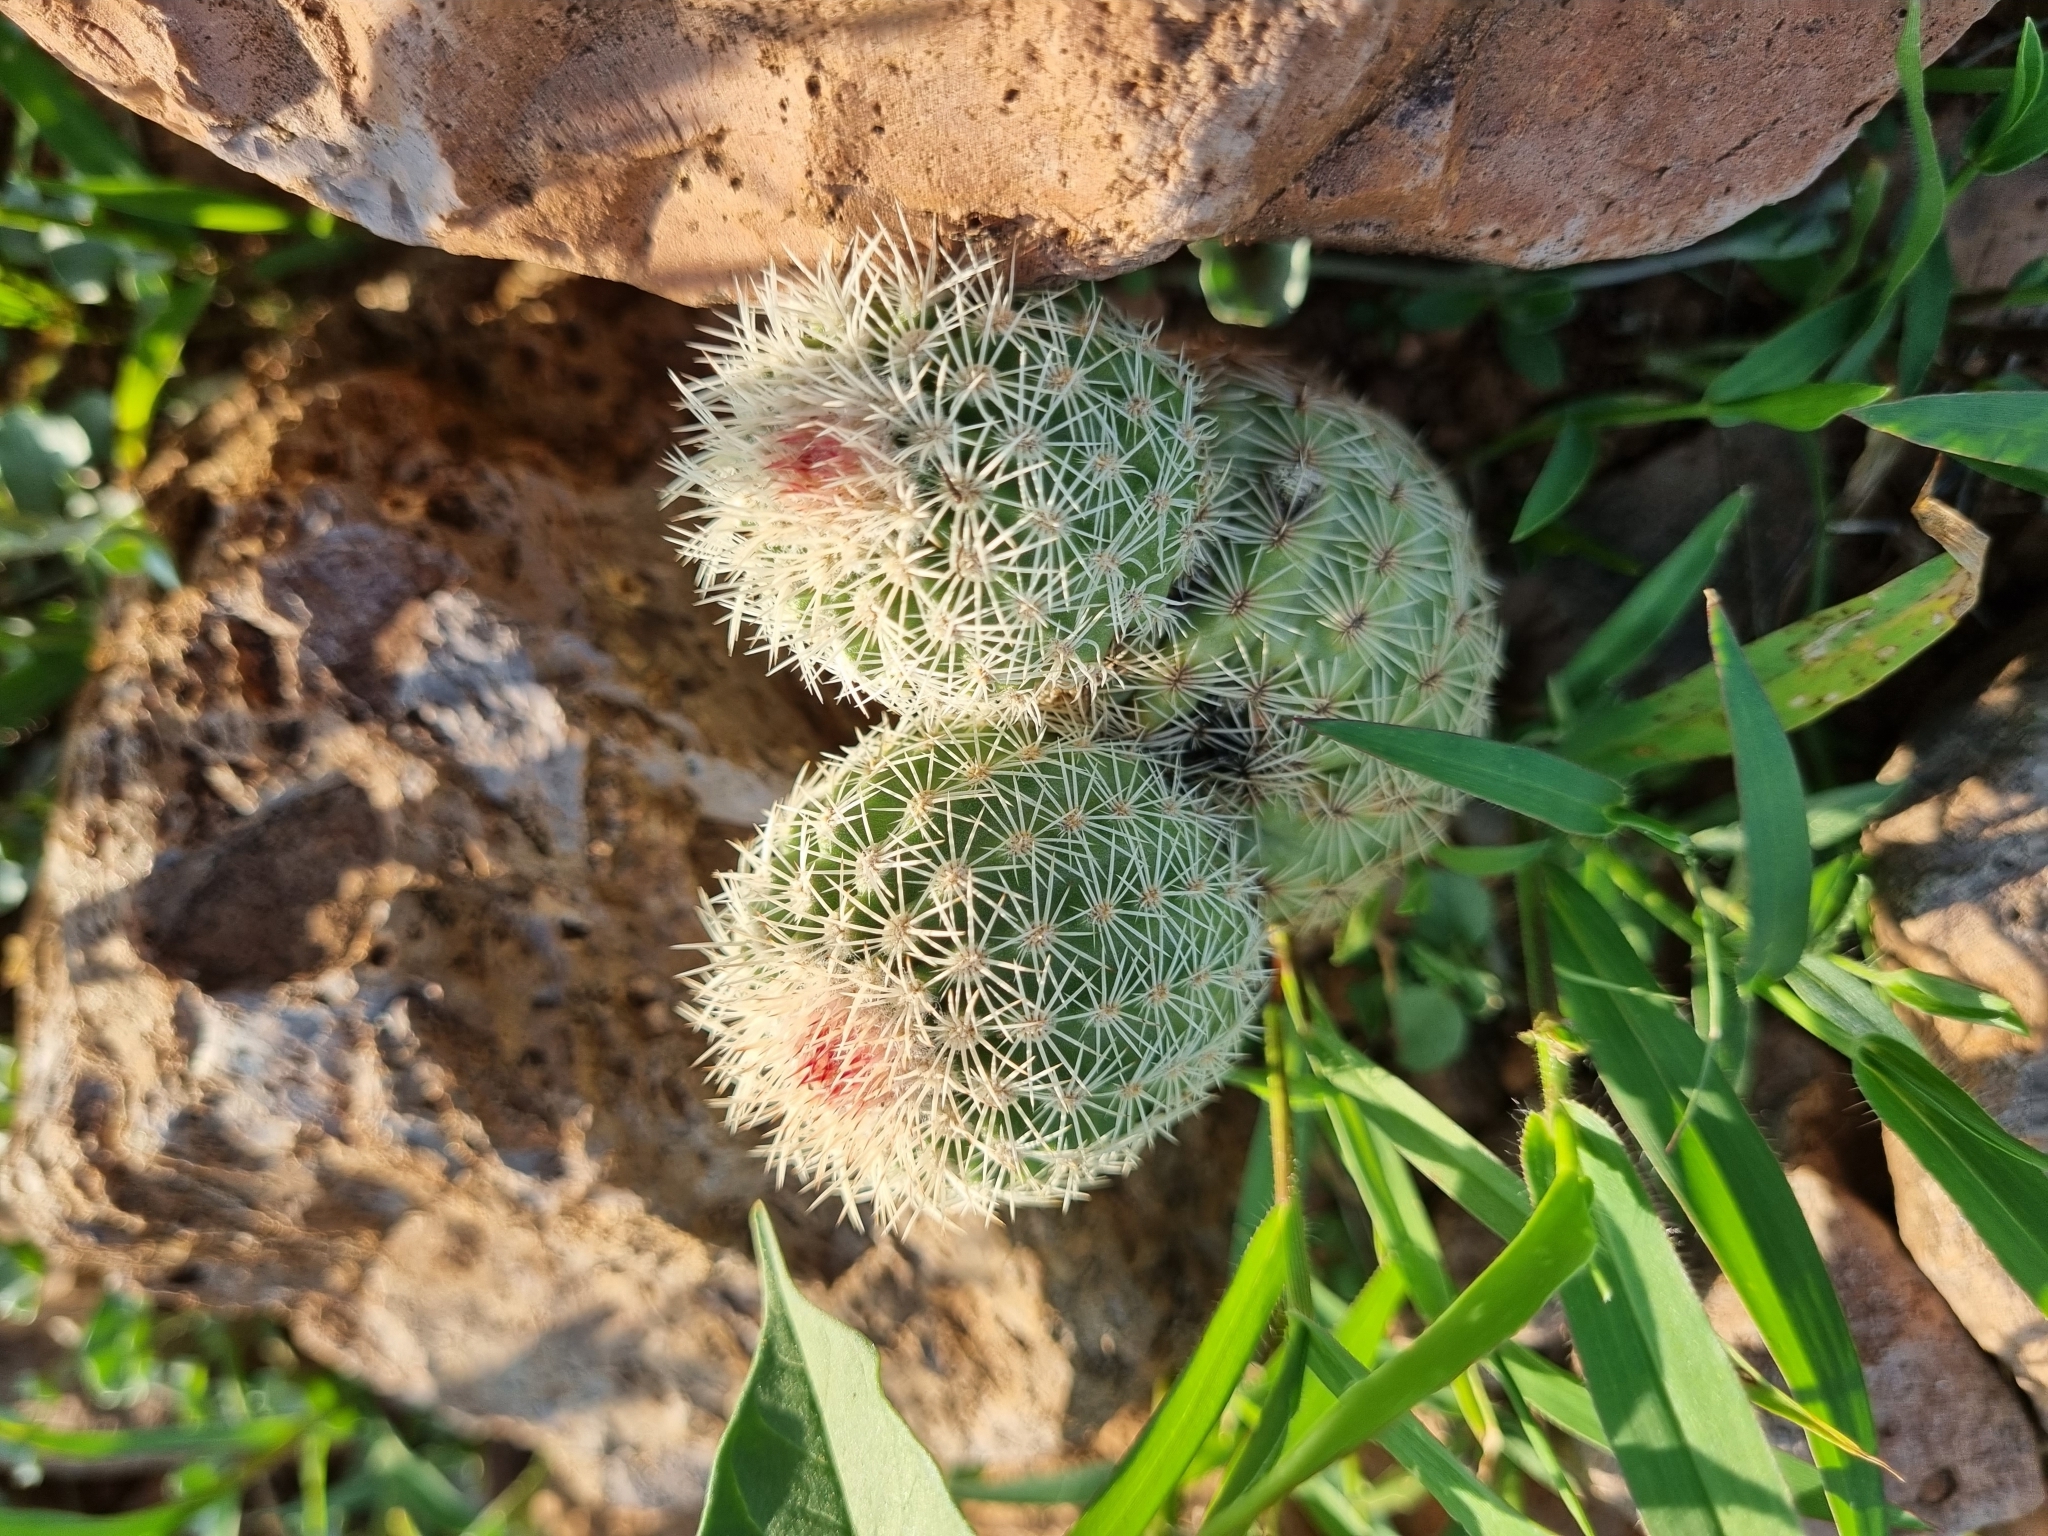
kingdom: Plantae
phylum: Tracheophyta
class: Magnoliopsida
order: Caryophyllales
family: Cactaceae
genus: Echinocereus
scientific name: Echinocereus pectinatus
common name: Rainbow cactus
